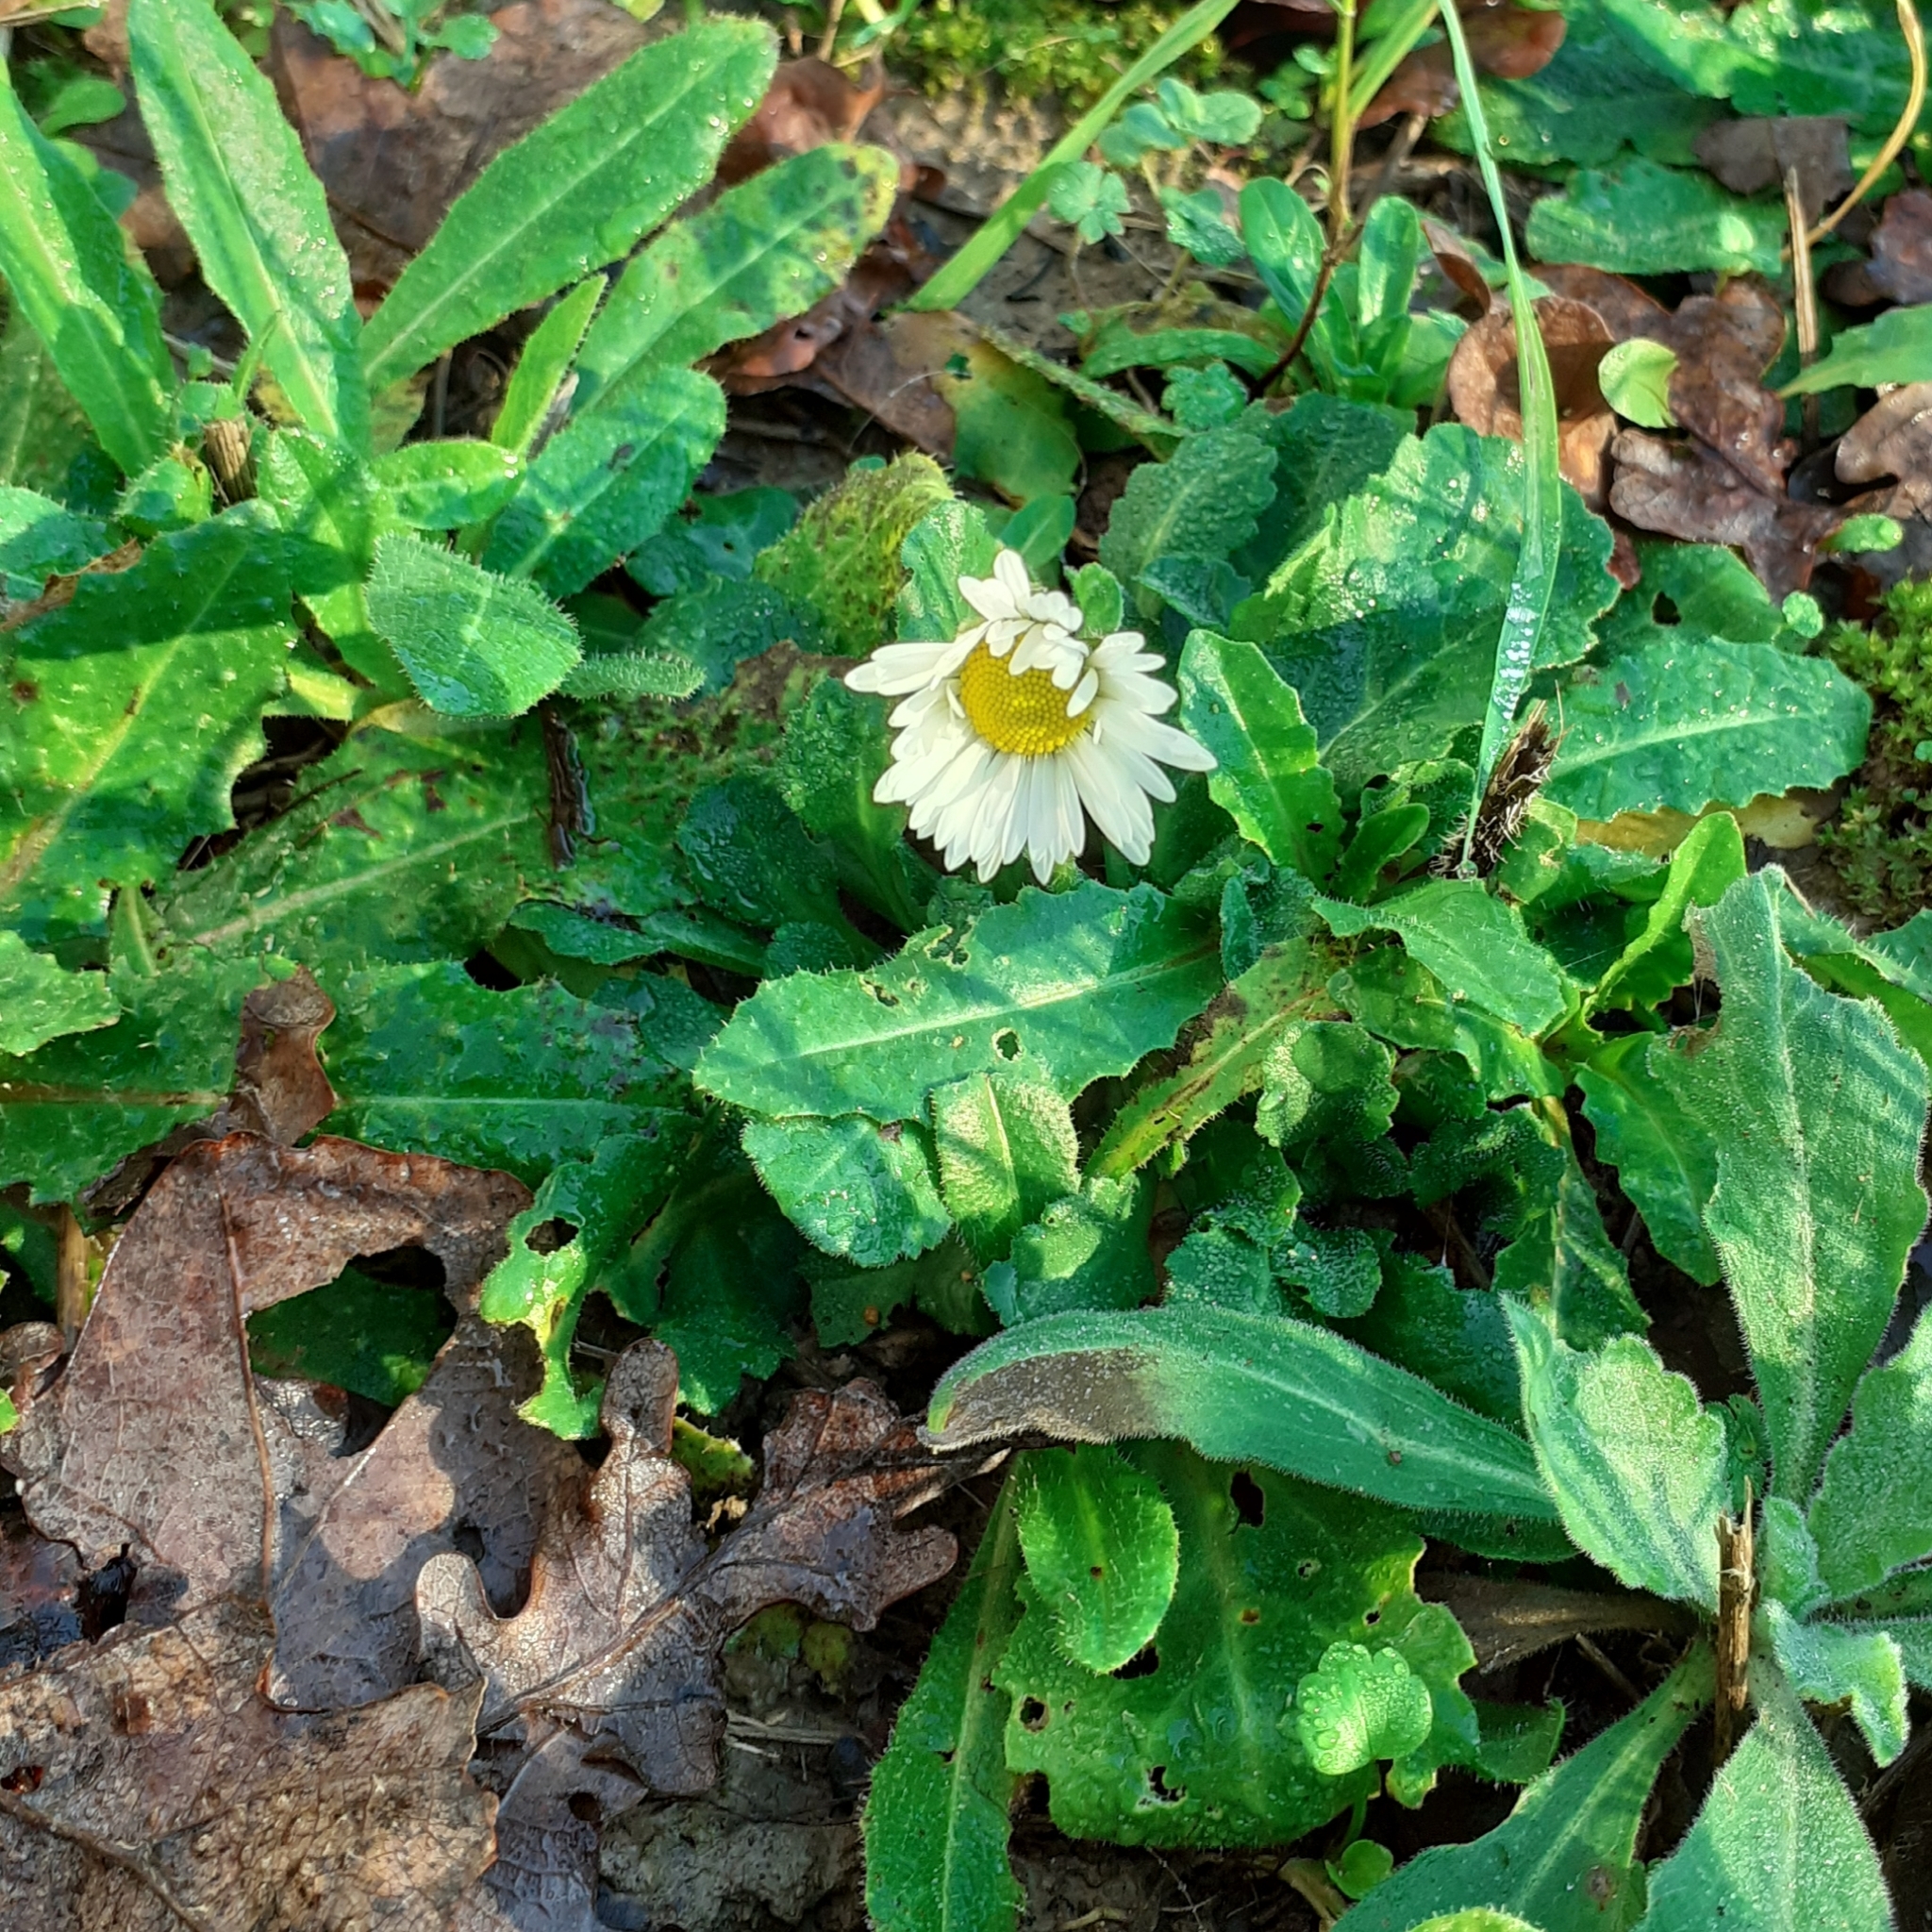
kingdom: Plantae
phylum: Tracheophyta
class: Magnoliopsida
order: Asterales
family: Asteraceae
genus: Bellis
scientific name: Bellis perennis
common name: Lawndaisy
